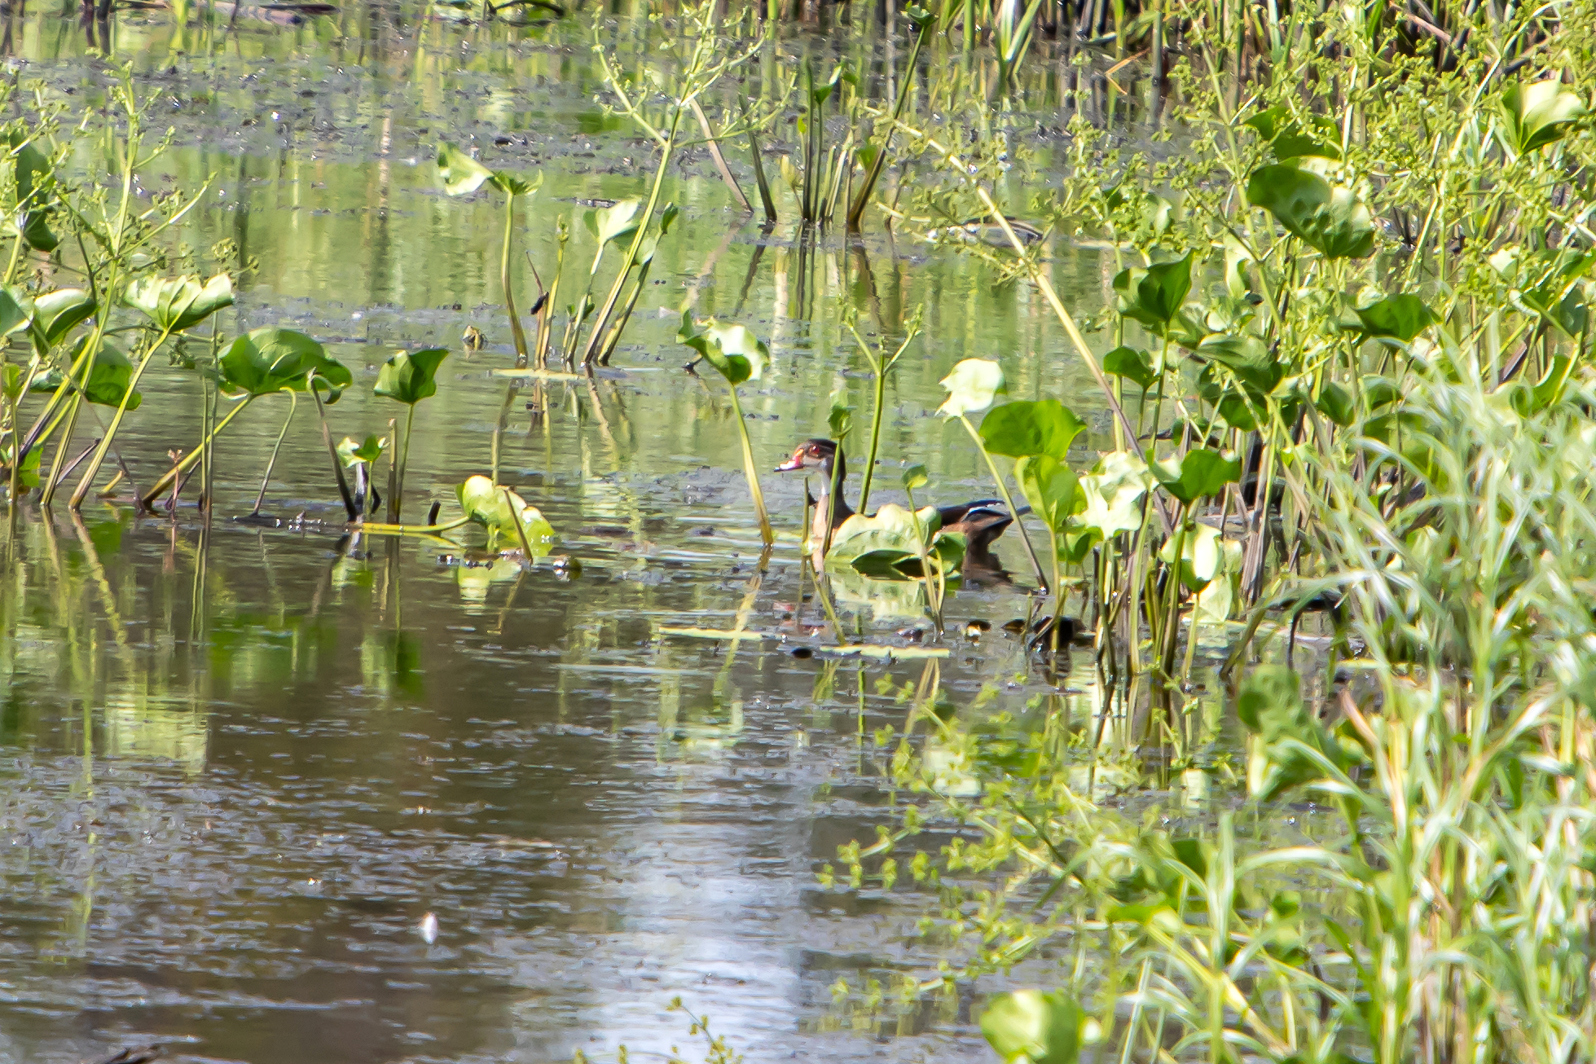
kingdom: Animalia
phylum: Chordata
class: Aves
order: Anseriformes
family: Anatidae
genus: Aix
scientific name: Aix sponsa
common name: Wood duck
